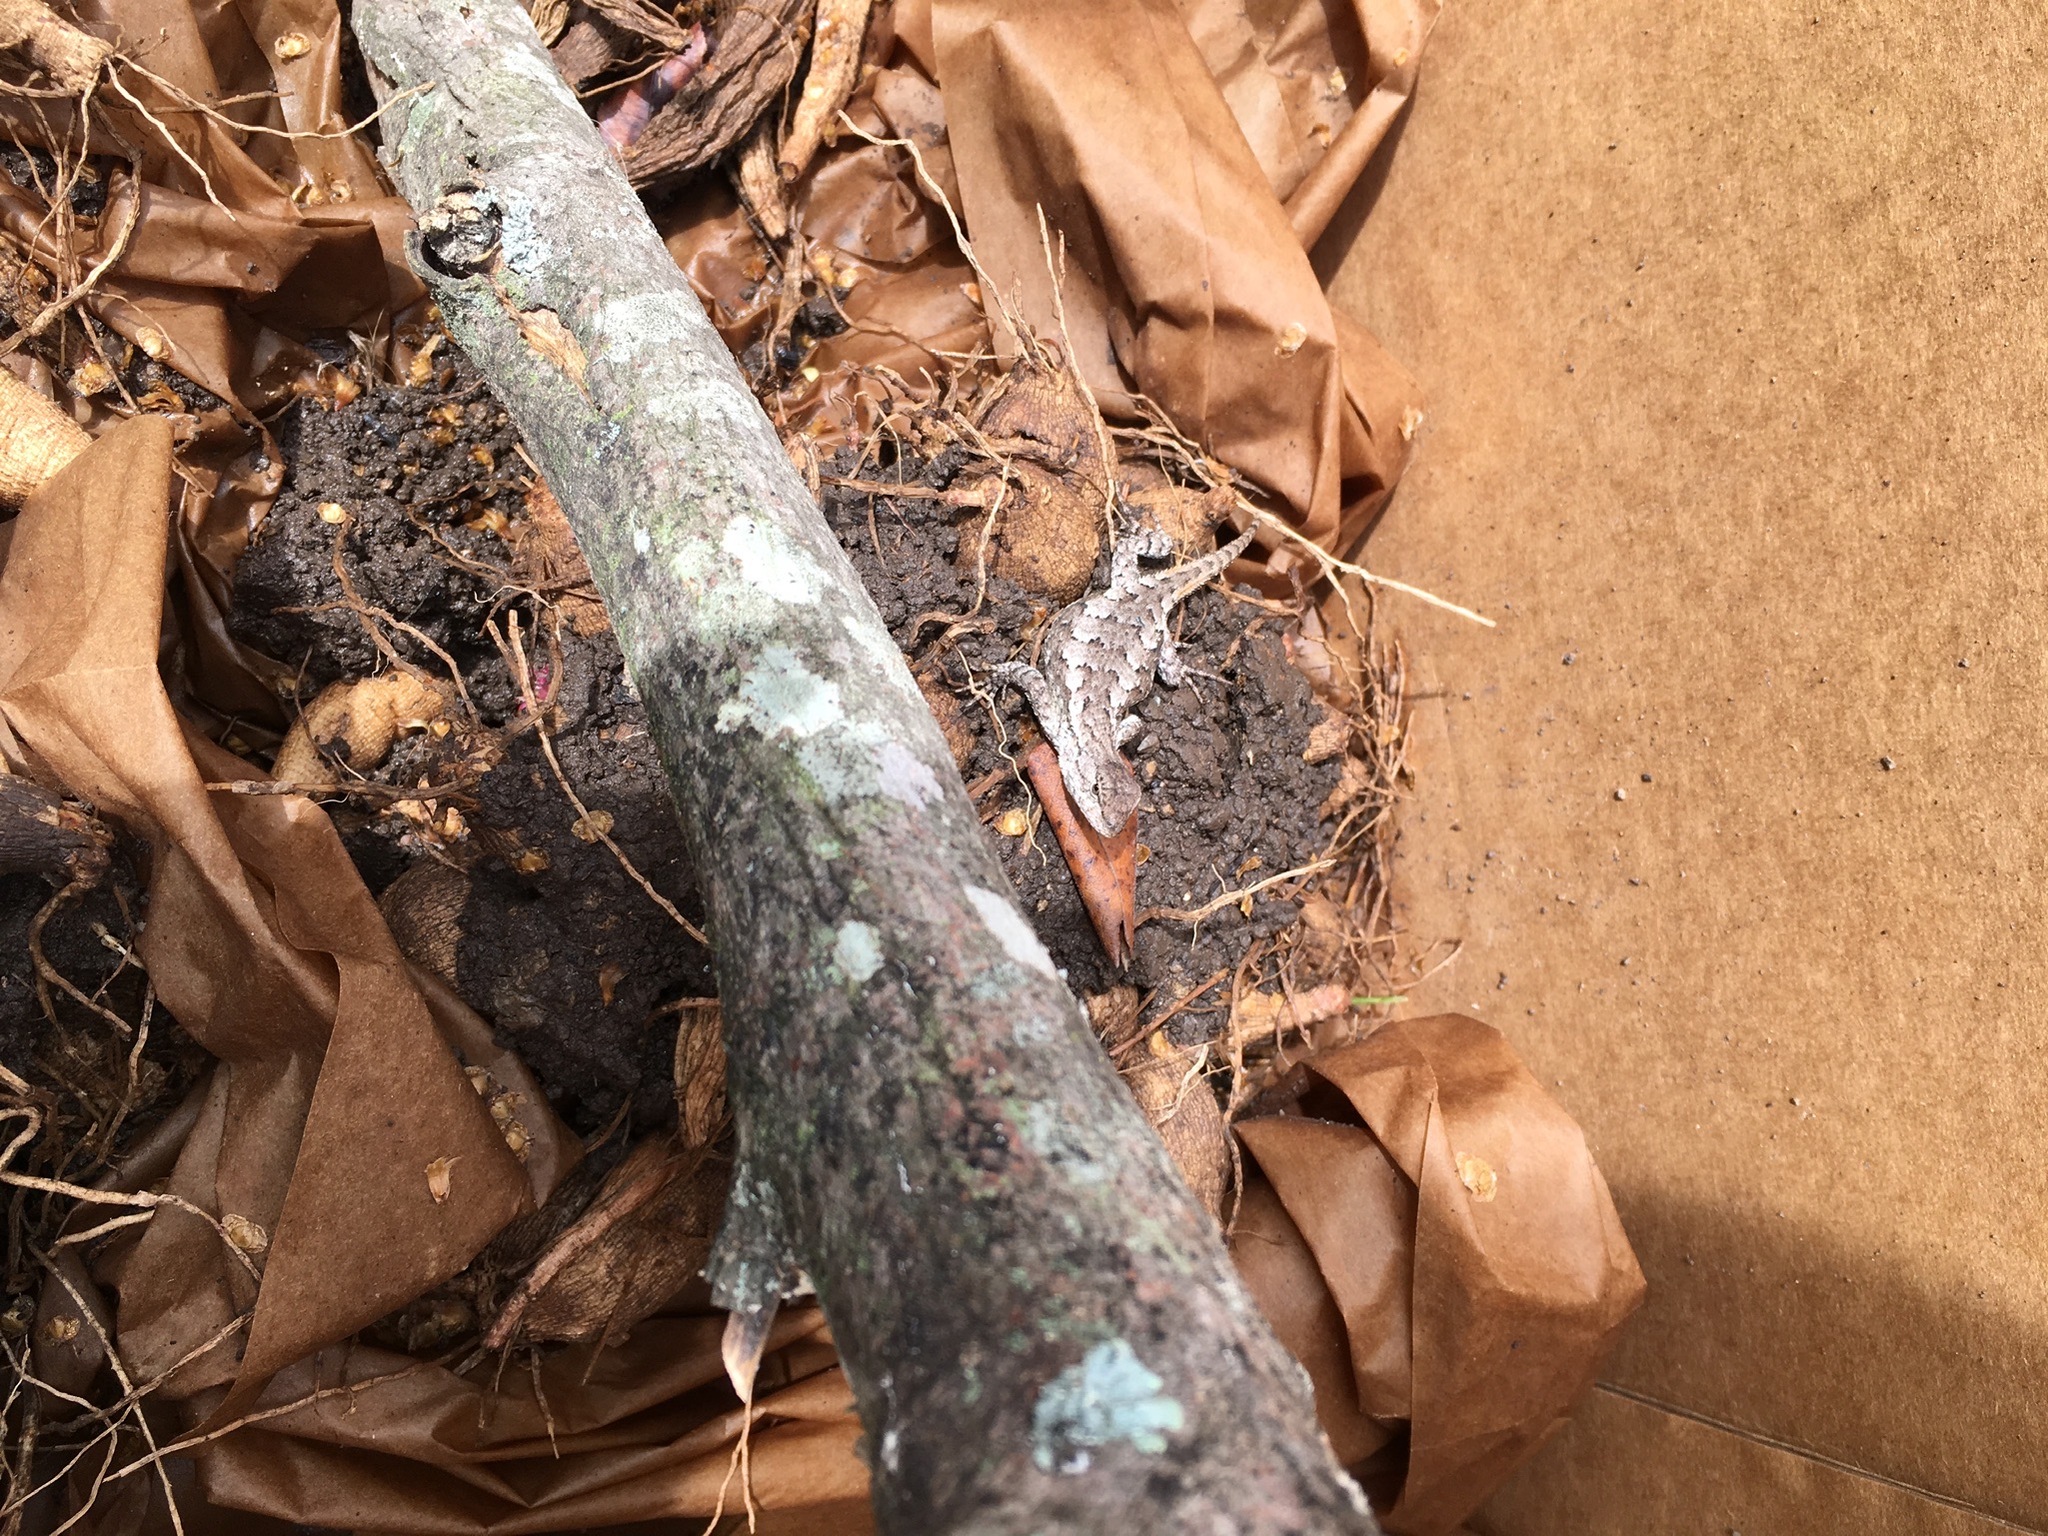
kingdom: Animalia
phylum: Chordata
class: Squamata
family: Phrynosomatidae
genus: Sceloporus
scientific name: Sceloporus consobrinus
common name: Southern prairie lizard
